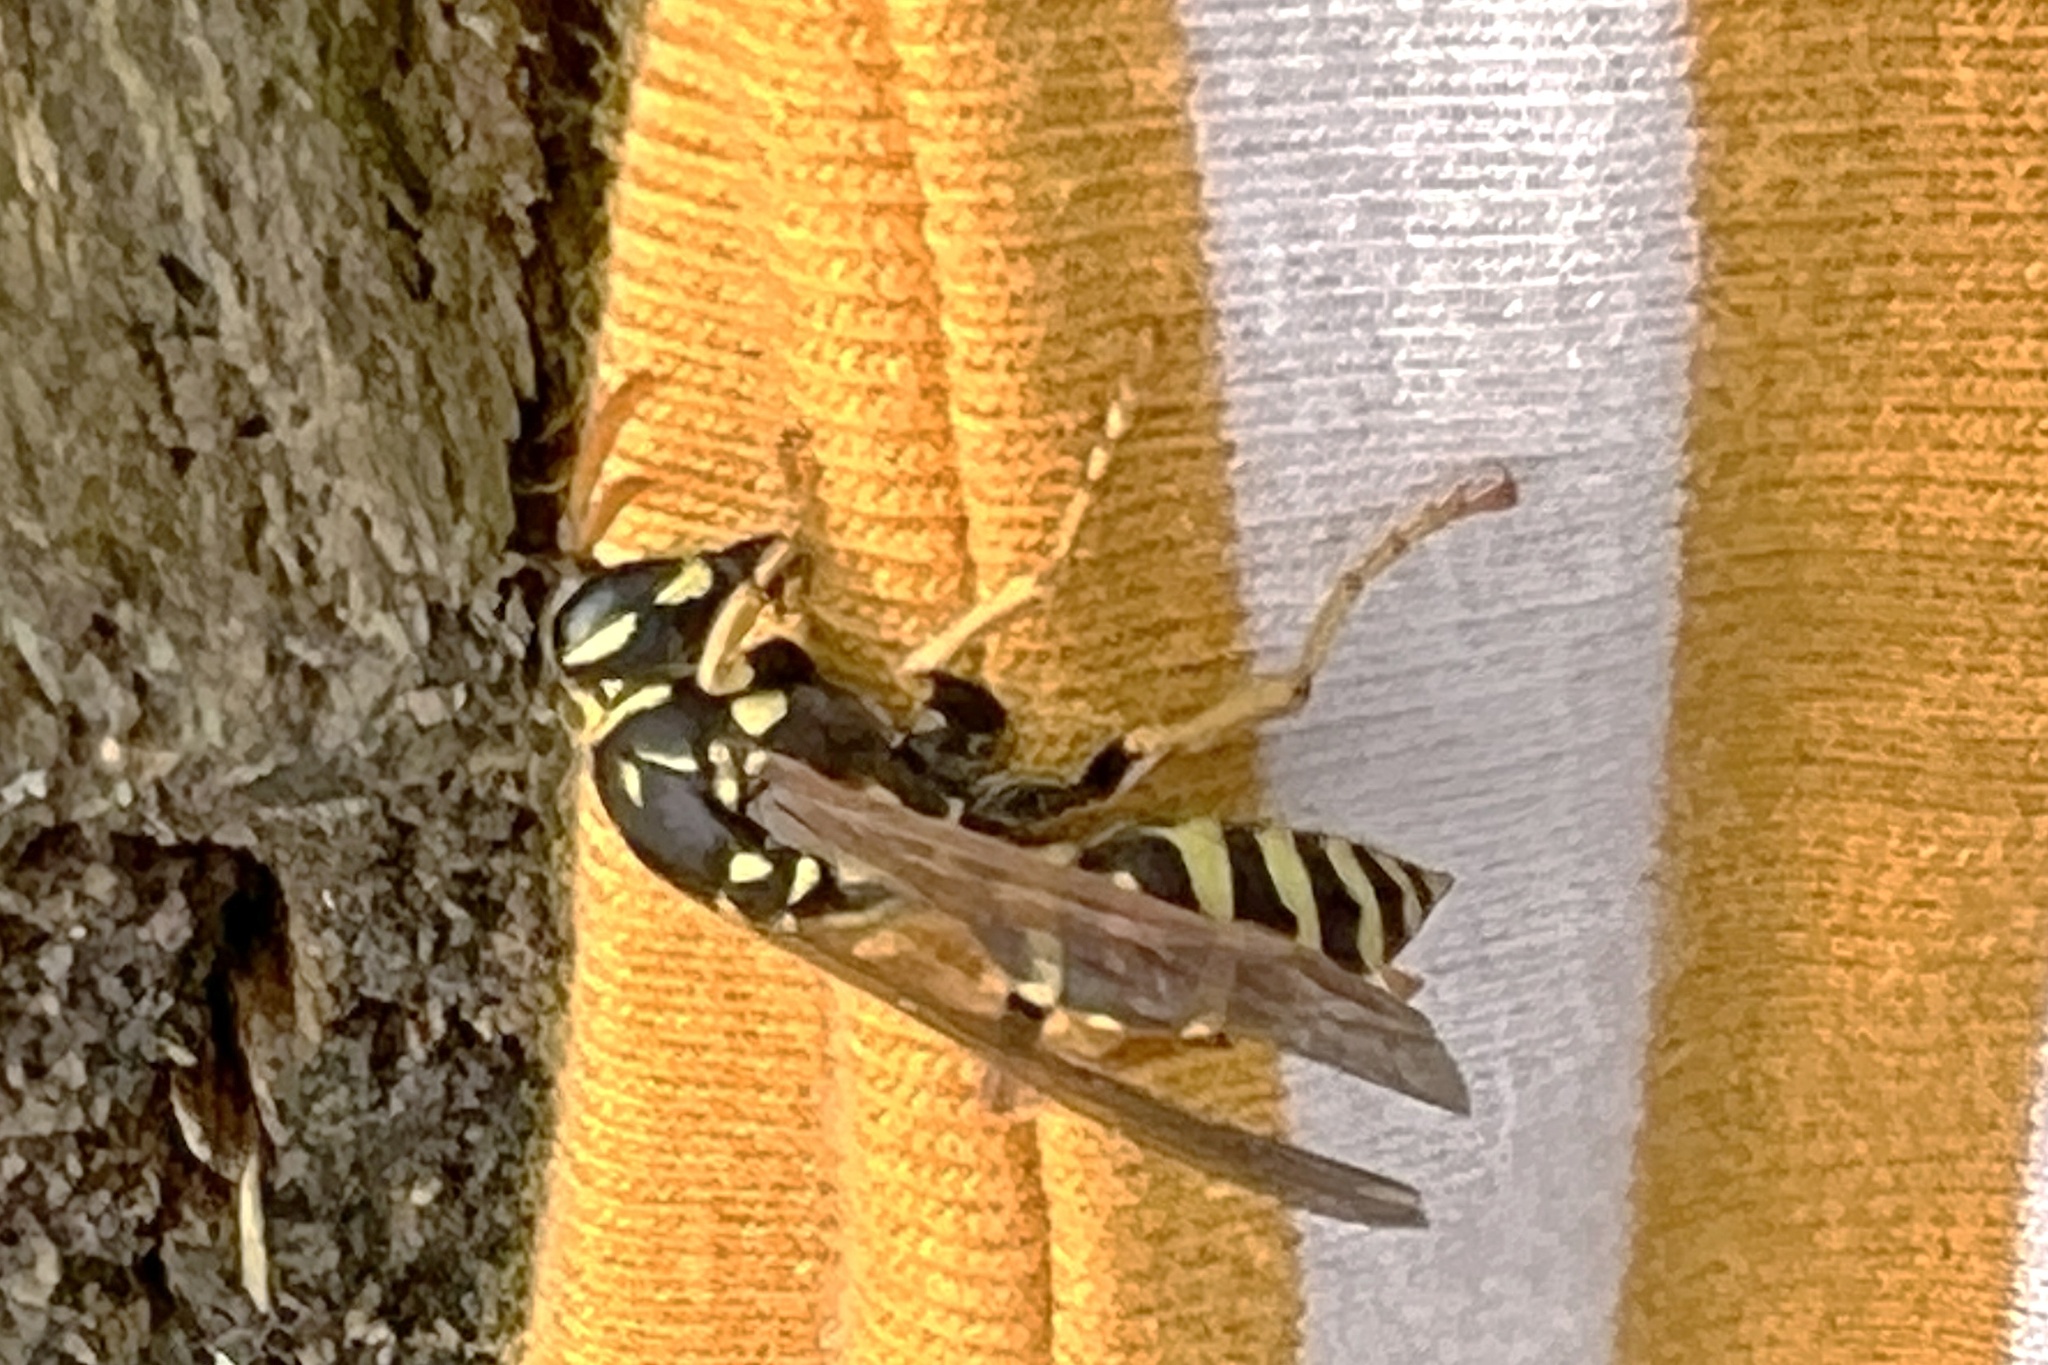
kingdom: Animalia
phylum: Arthropoda
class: Insecta
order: Hymenoptera
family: Eumenidae
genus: Polistes
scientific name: Polistes dominula
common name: Paper wasp
